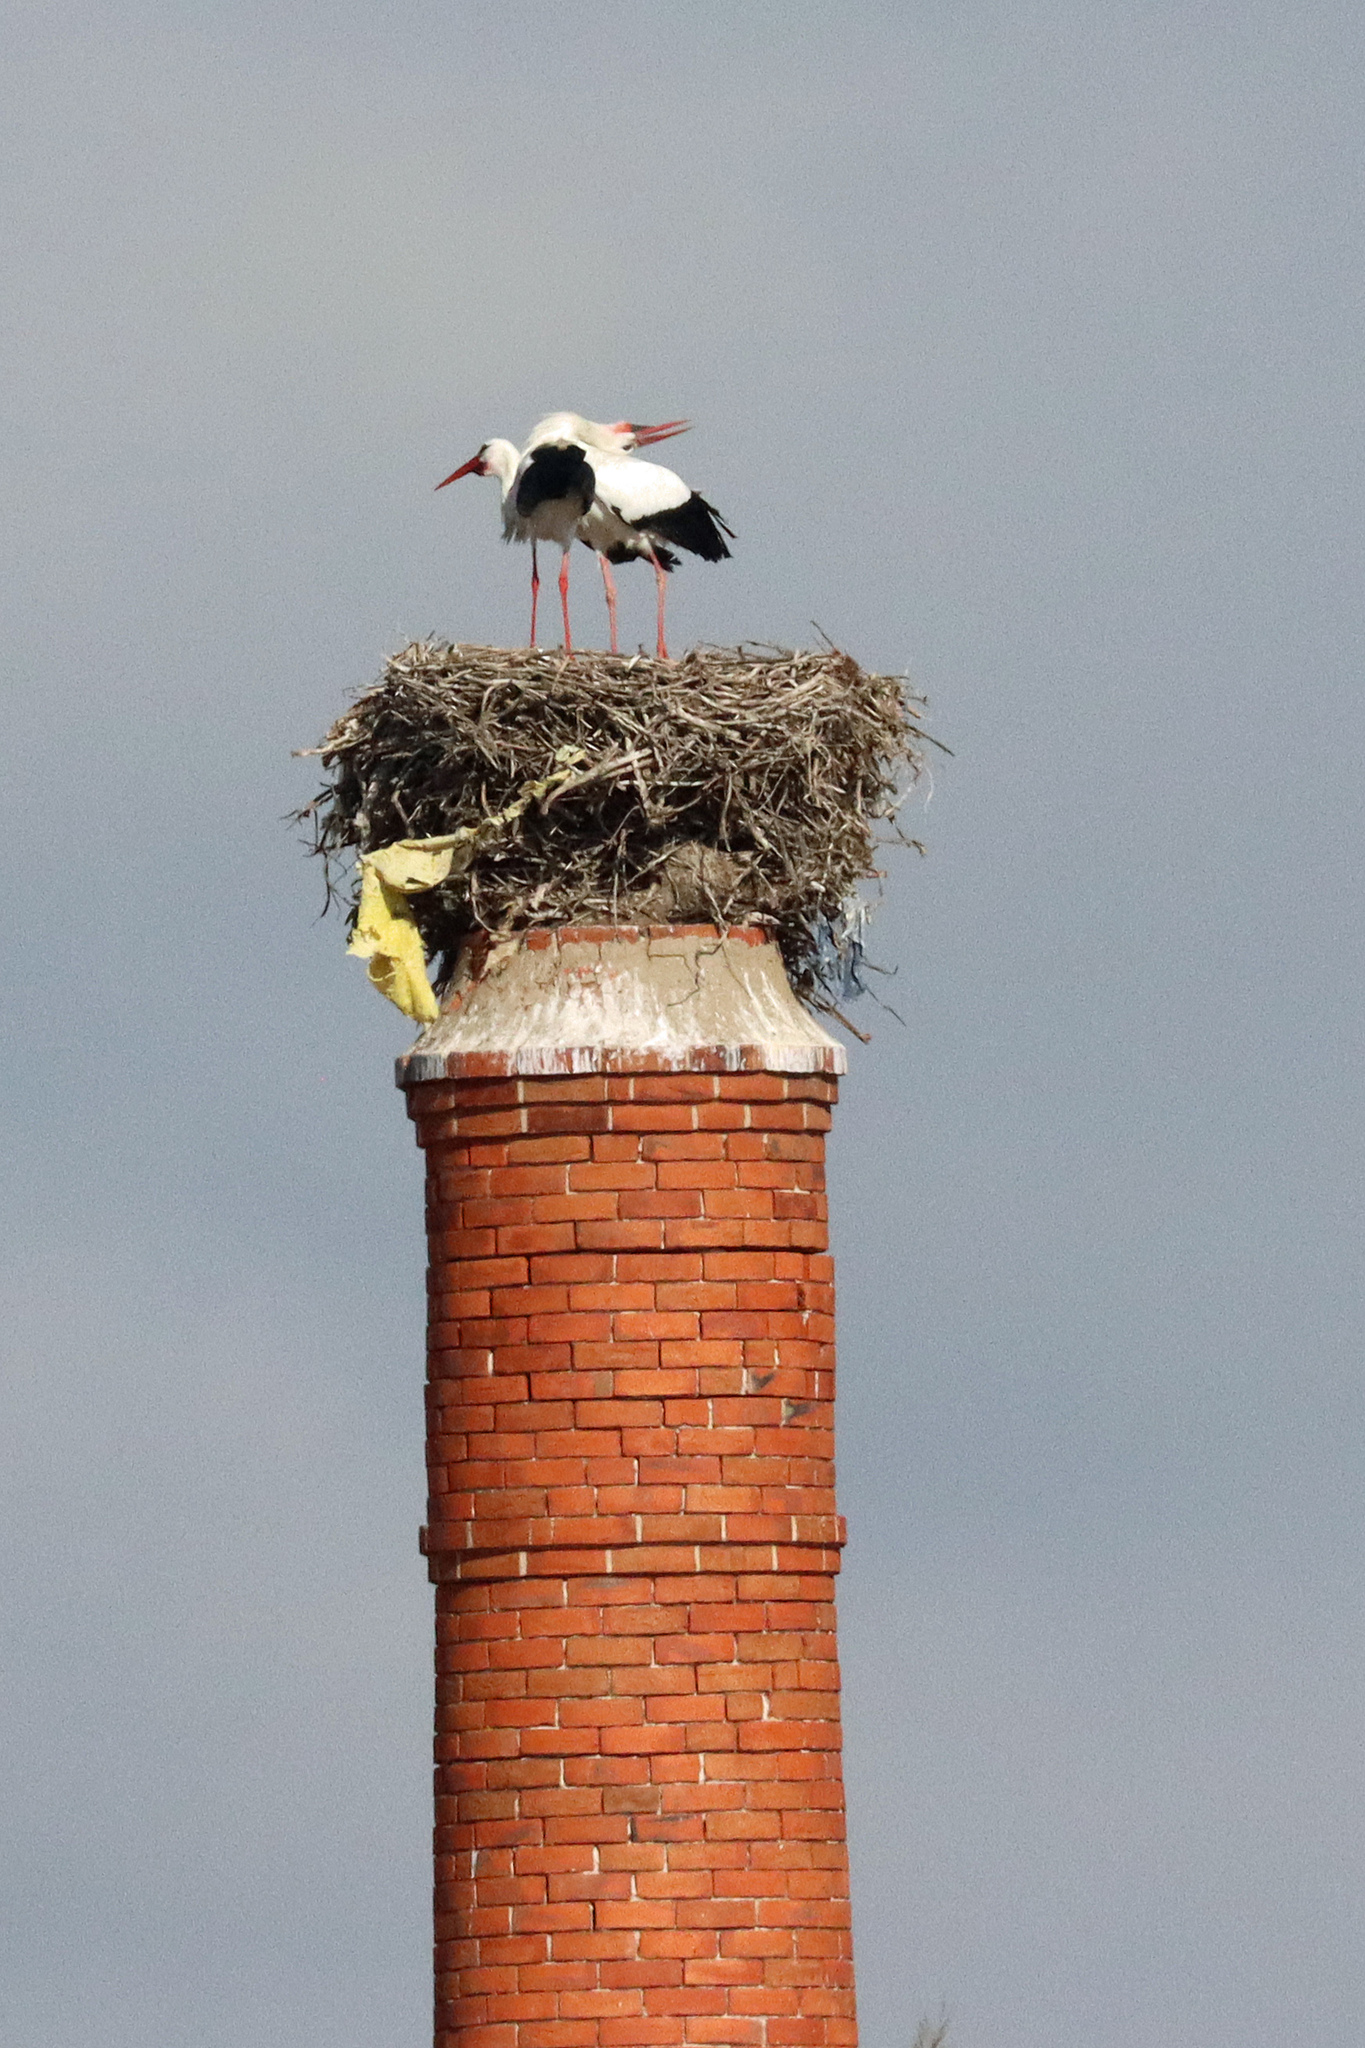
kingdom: Animalia
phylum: Chordata
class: Aves
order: Ciconiiformes
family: Ciconiidae
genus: Ciconia
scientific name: Ciconia ciconia
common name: White stork
